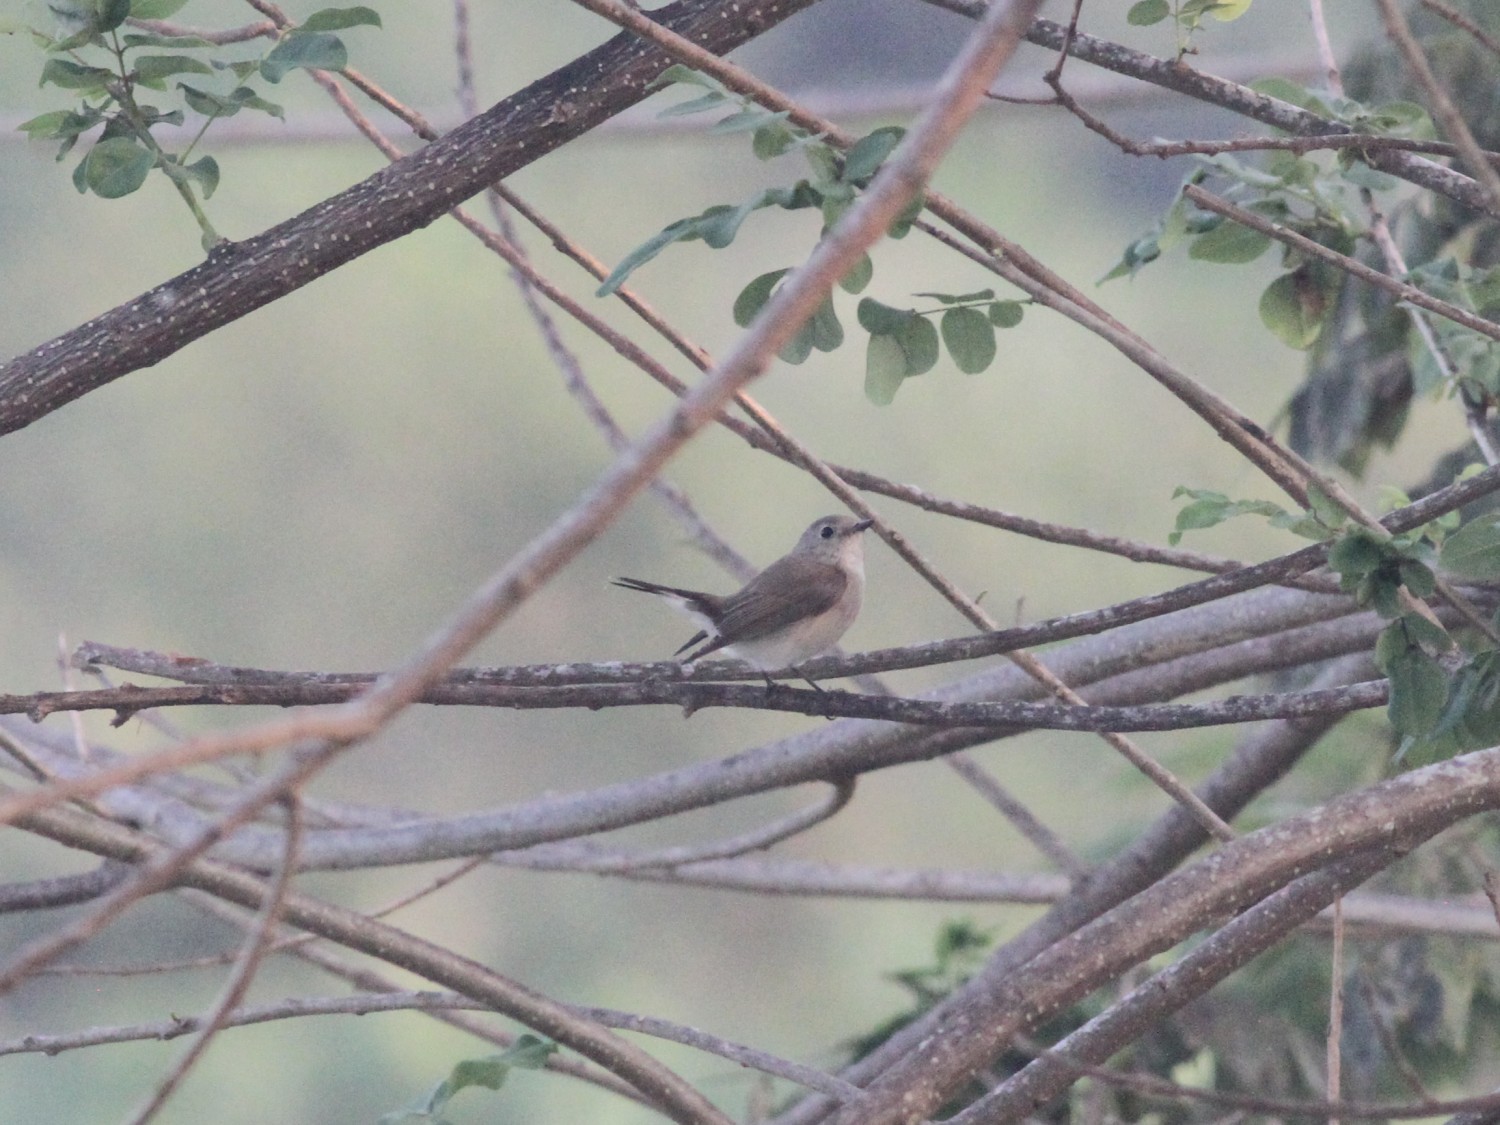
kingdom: Animalia
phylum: Chordata
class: Aves
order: Passeriformes
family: Muscicapidae
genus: Ficedula
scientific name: Ficedula albicilla
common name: Taiga flycatcher
